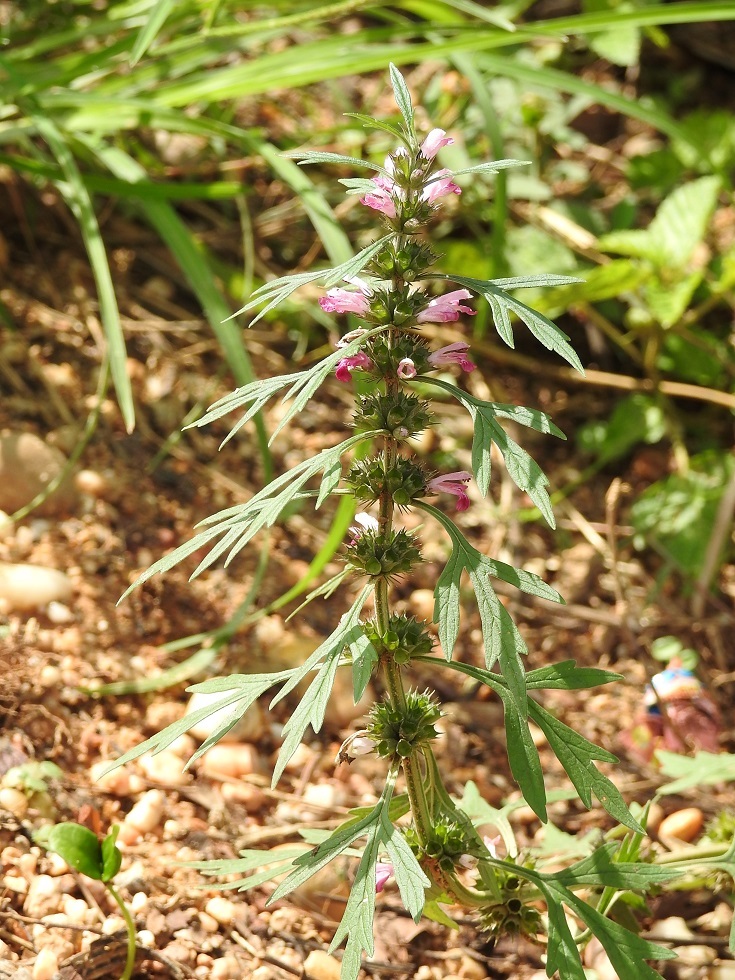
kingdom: Plantae
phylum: Tracheophyta
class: Magnoliopsida
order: Lamiales
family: Lamiaceae
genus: Leonurus
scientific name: Leonurus japonicus
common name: Honeyweed
